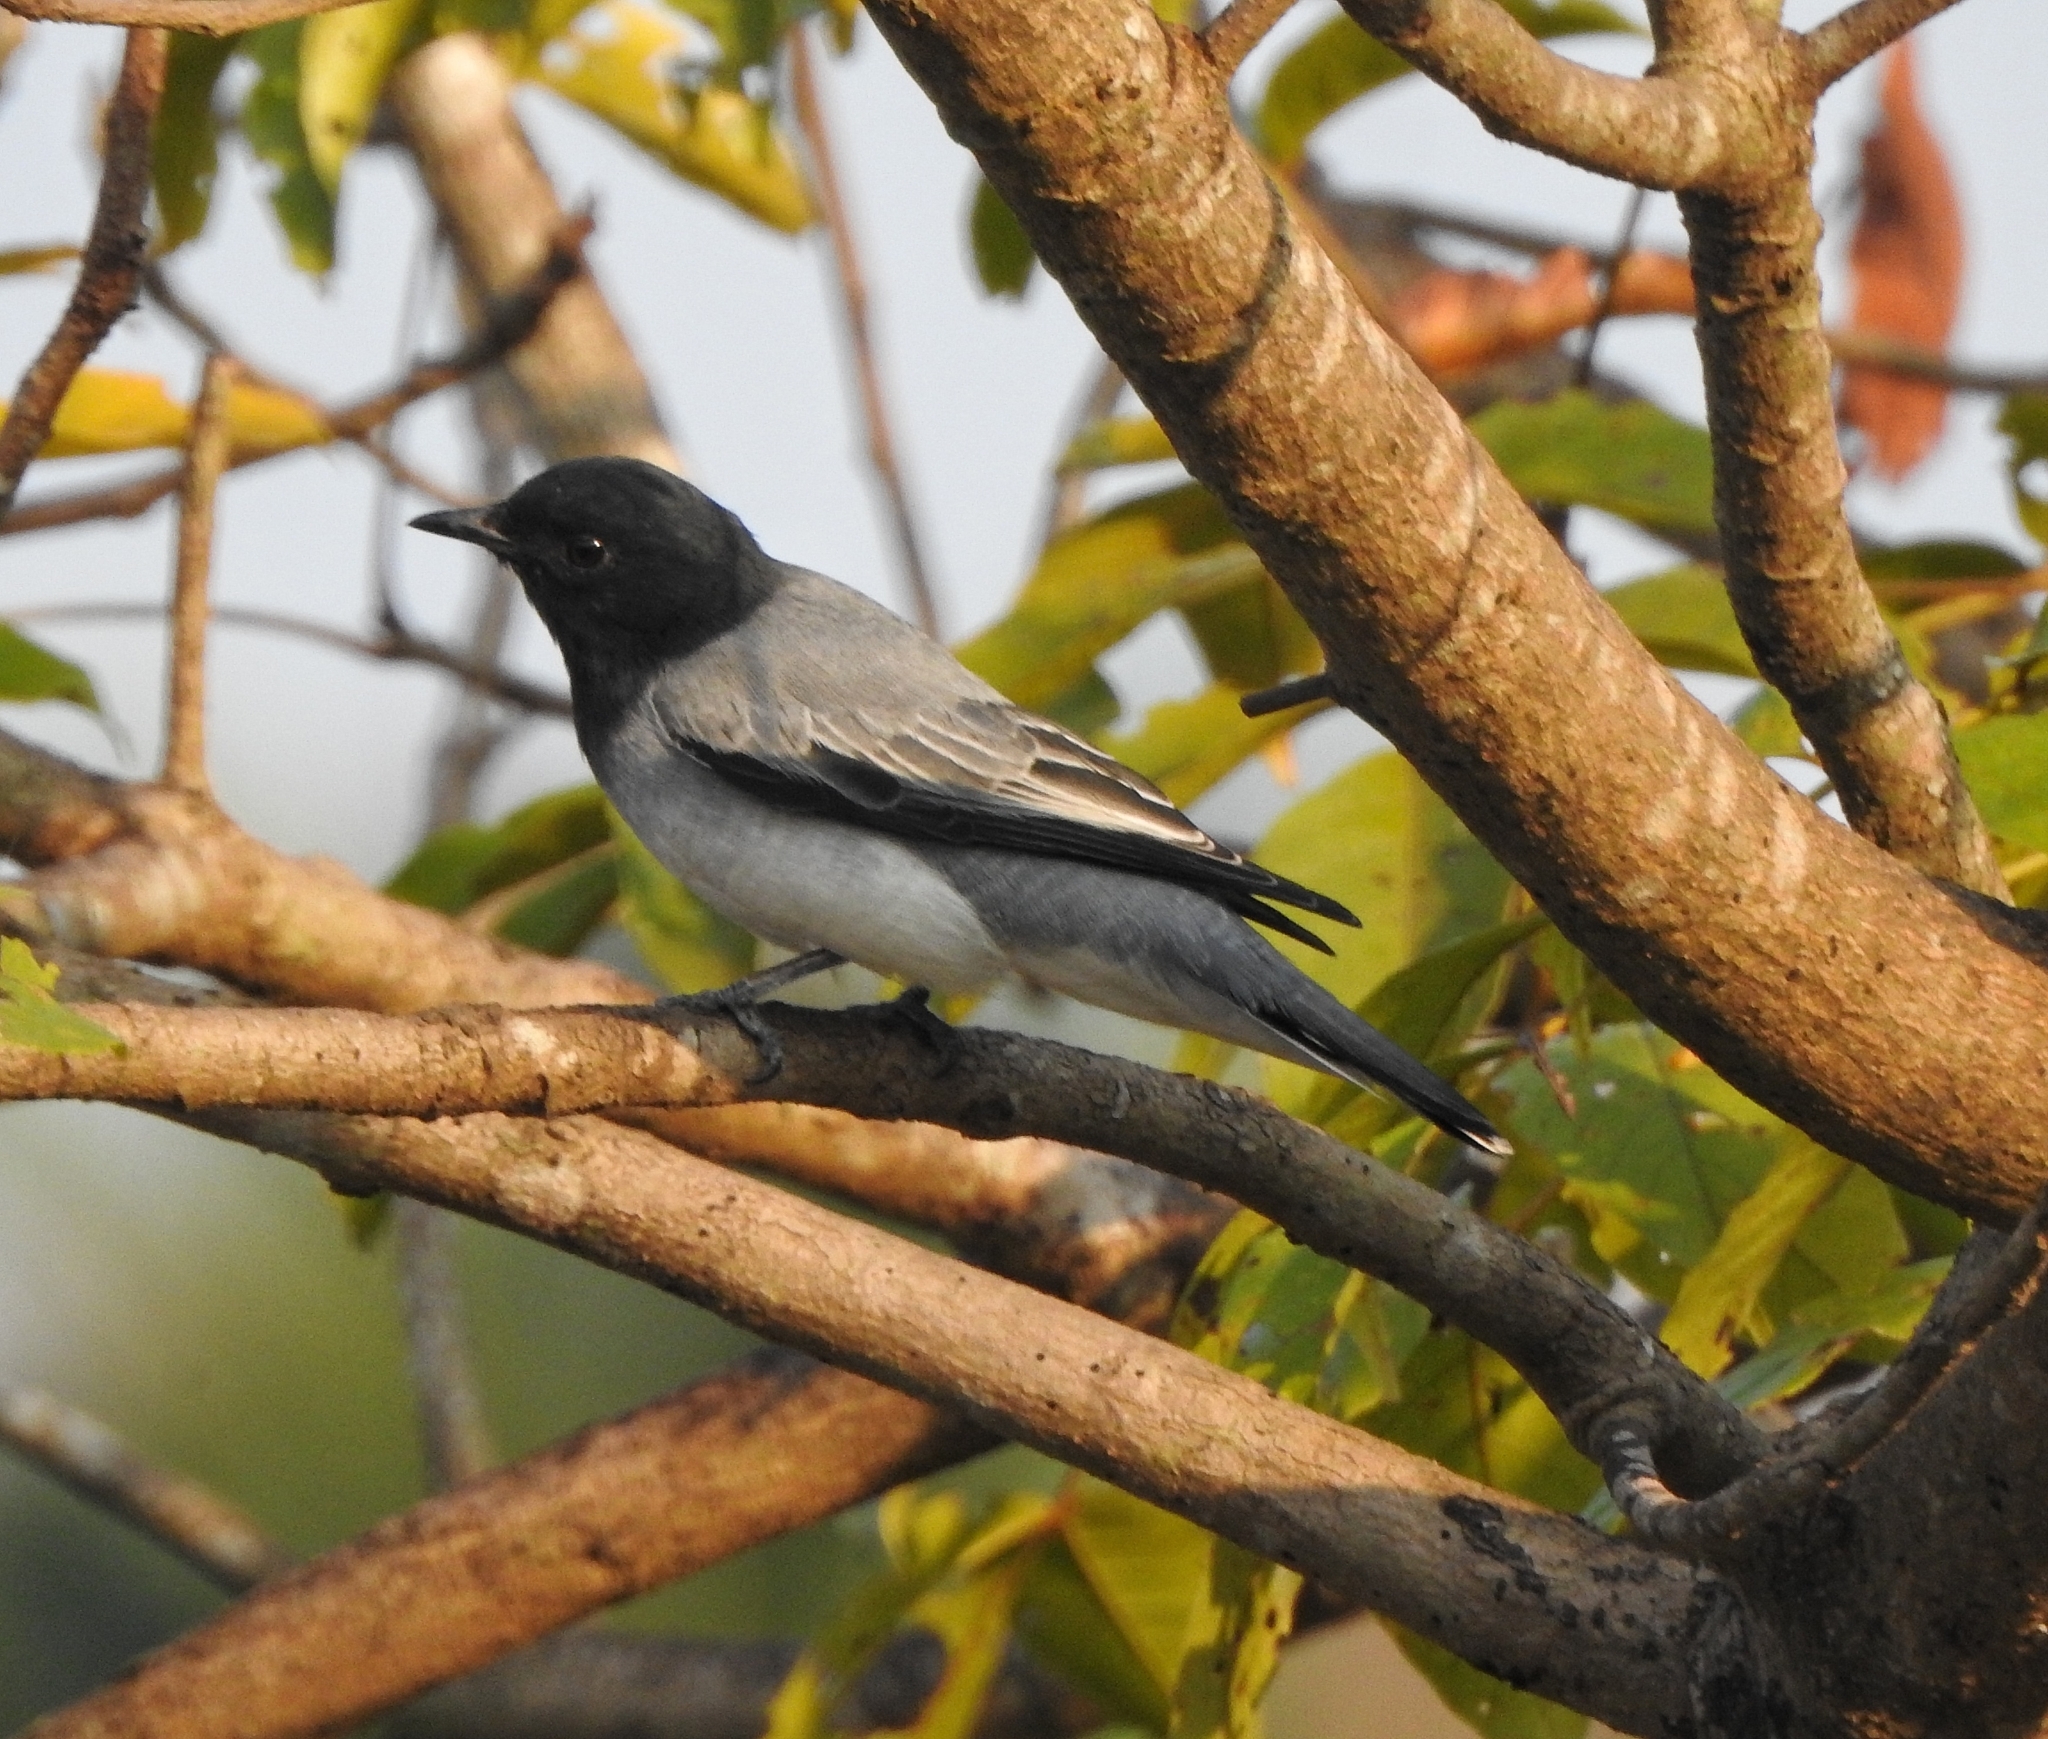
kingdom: Animalia
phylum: Chordata
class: Aves
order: Passeriformes
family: Campephagidae
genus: Coracina
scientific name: Coracina melanoptera
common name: Black-headed cuckooshrike
